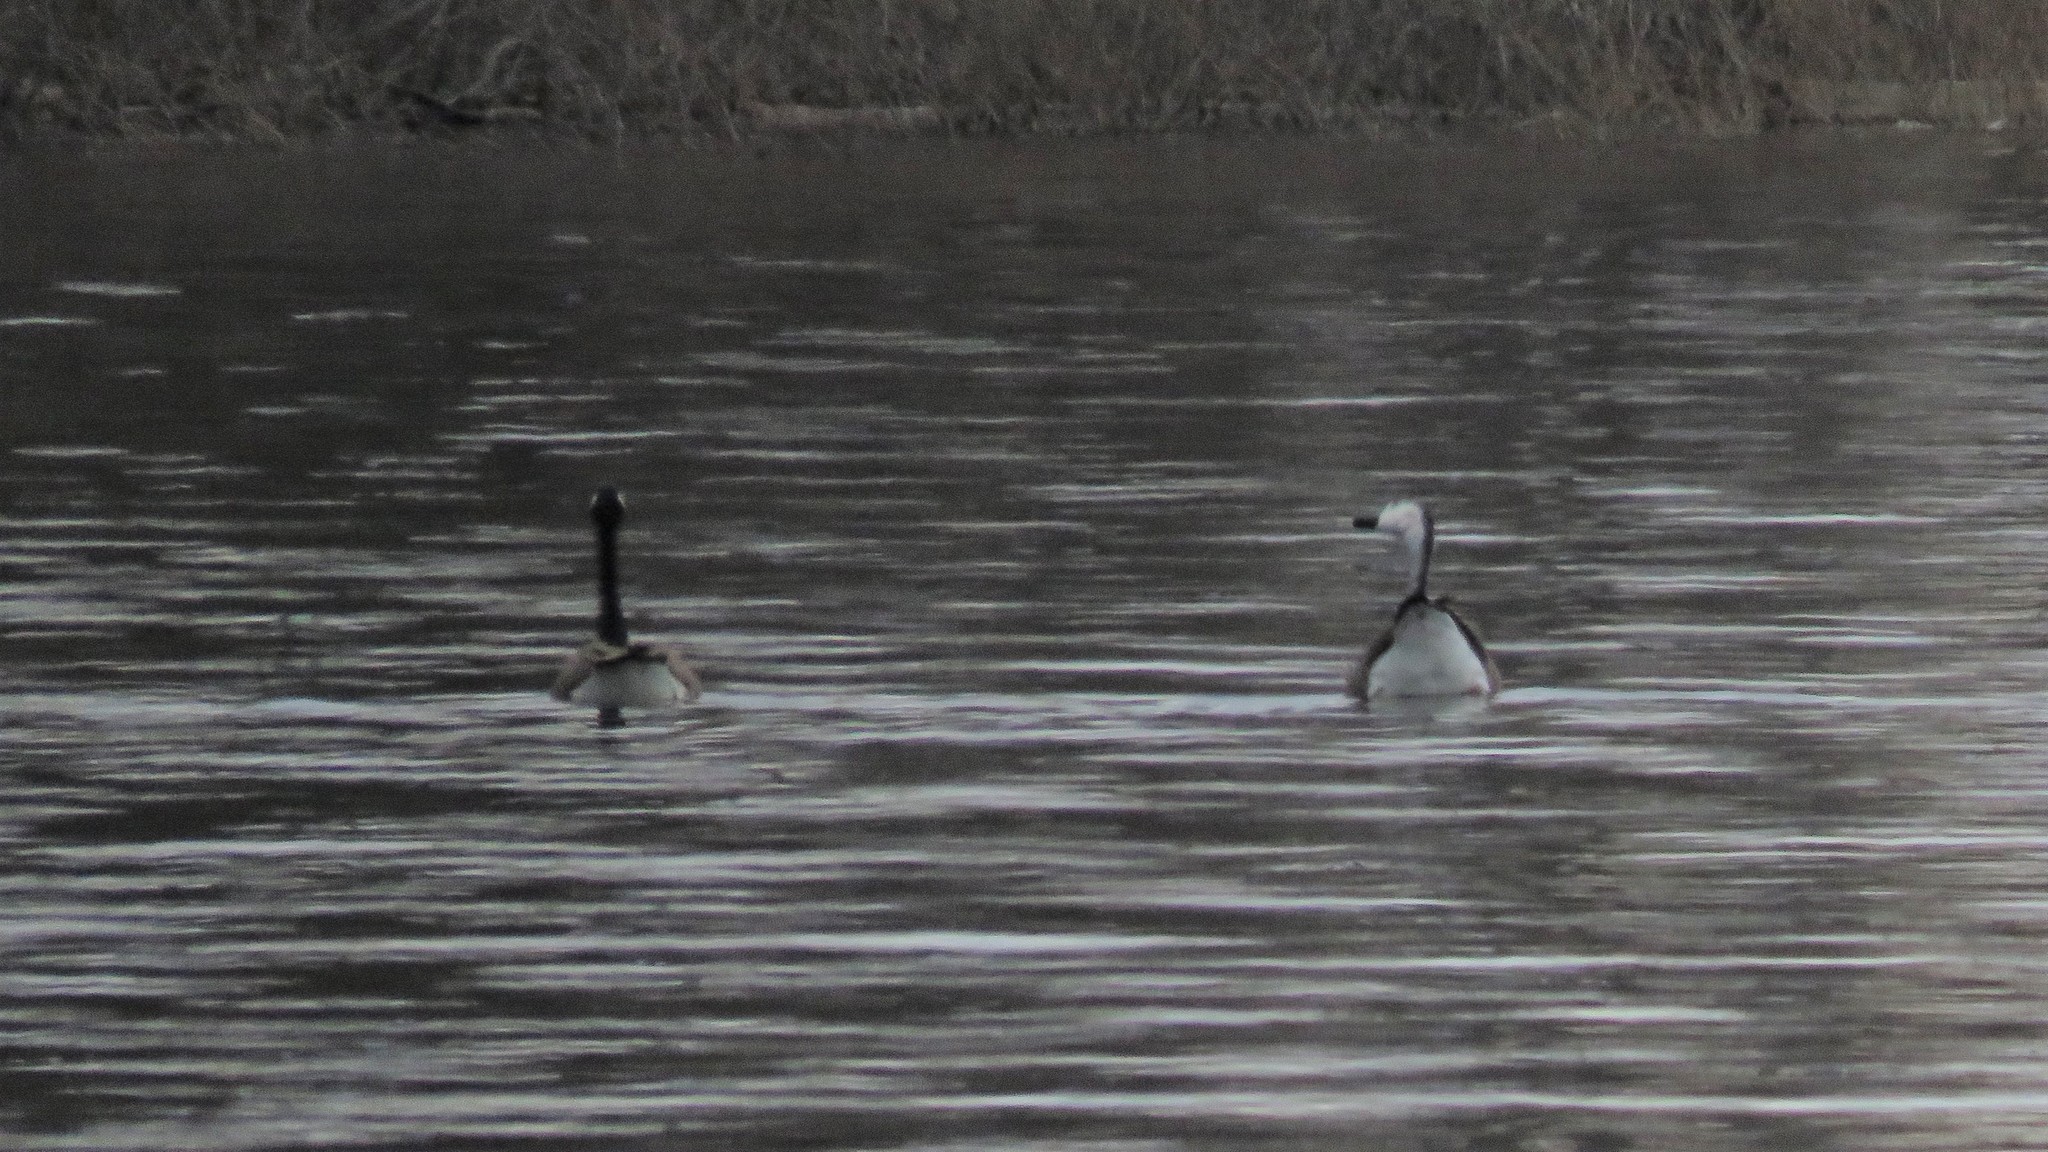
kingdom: Animalia
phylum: Chordata
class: Aves
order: Anseriformes
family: Anatidae
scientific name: Anatidae
